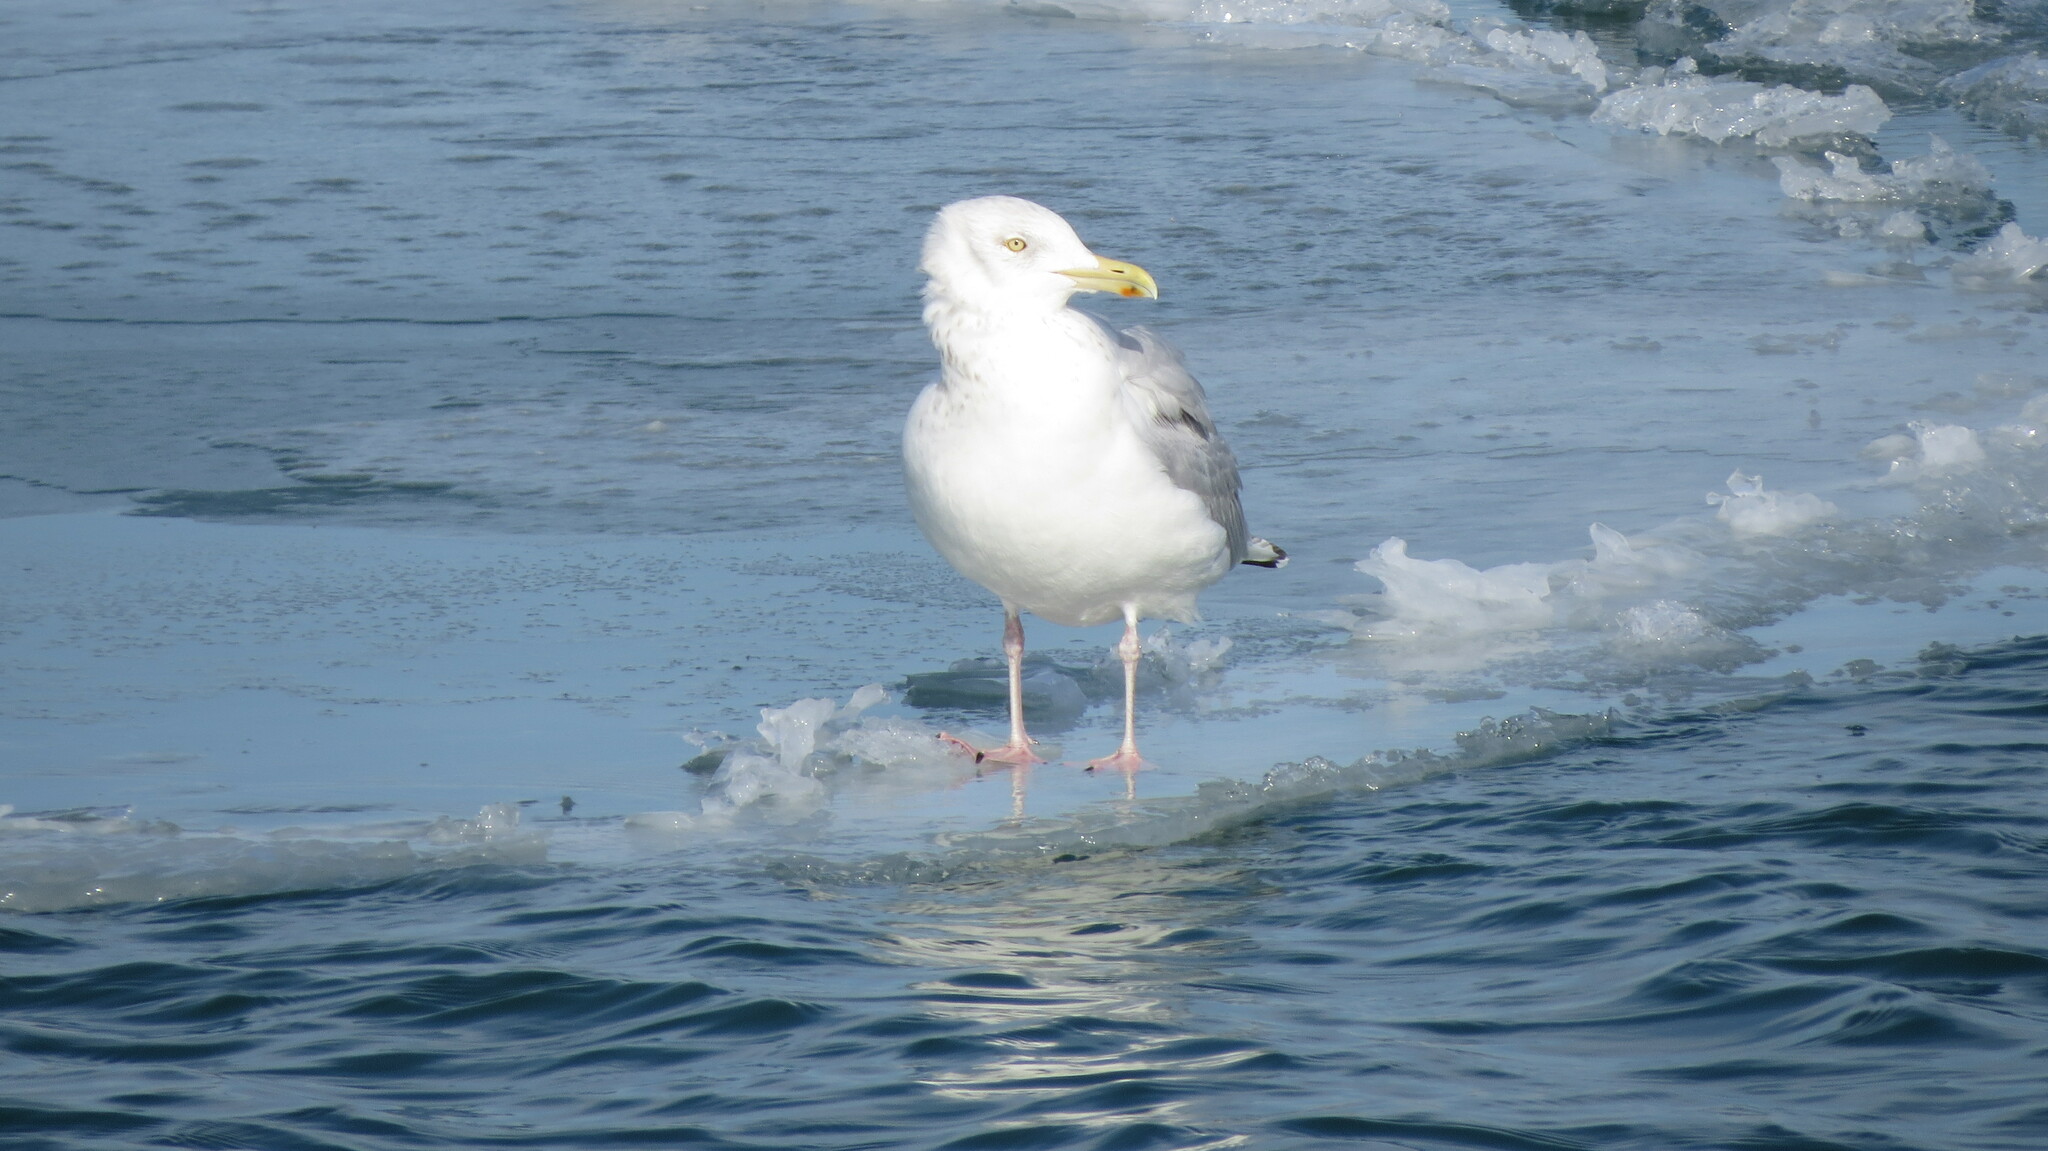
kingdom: Animalia
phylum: Chordata
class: Aves
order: Charadriiformes
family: Laridae
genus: Larus
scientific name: Larus smithsonianus
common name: American herring gull
